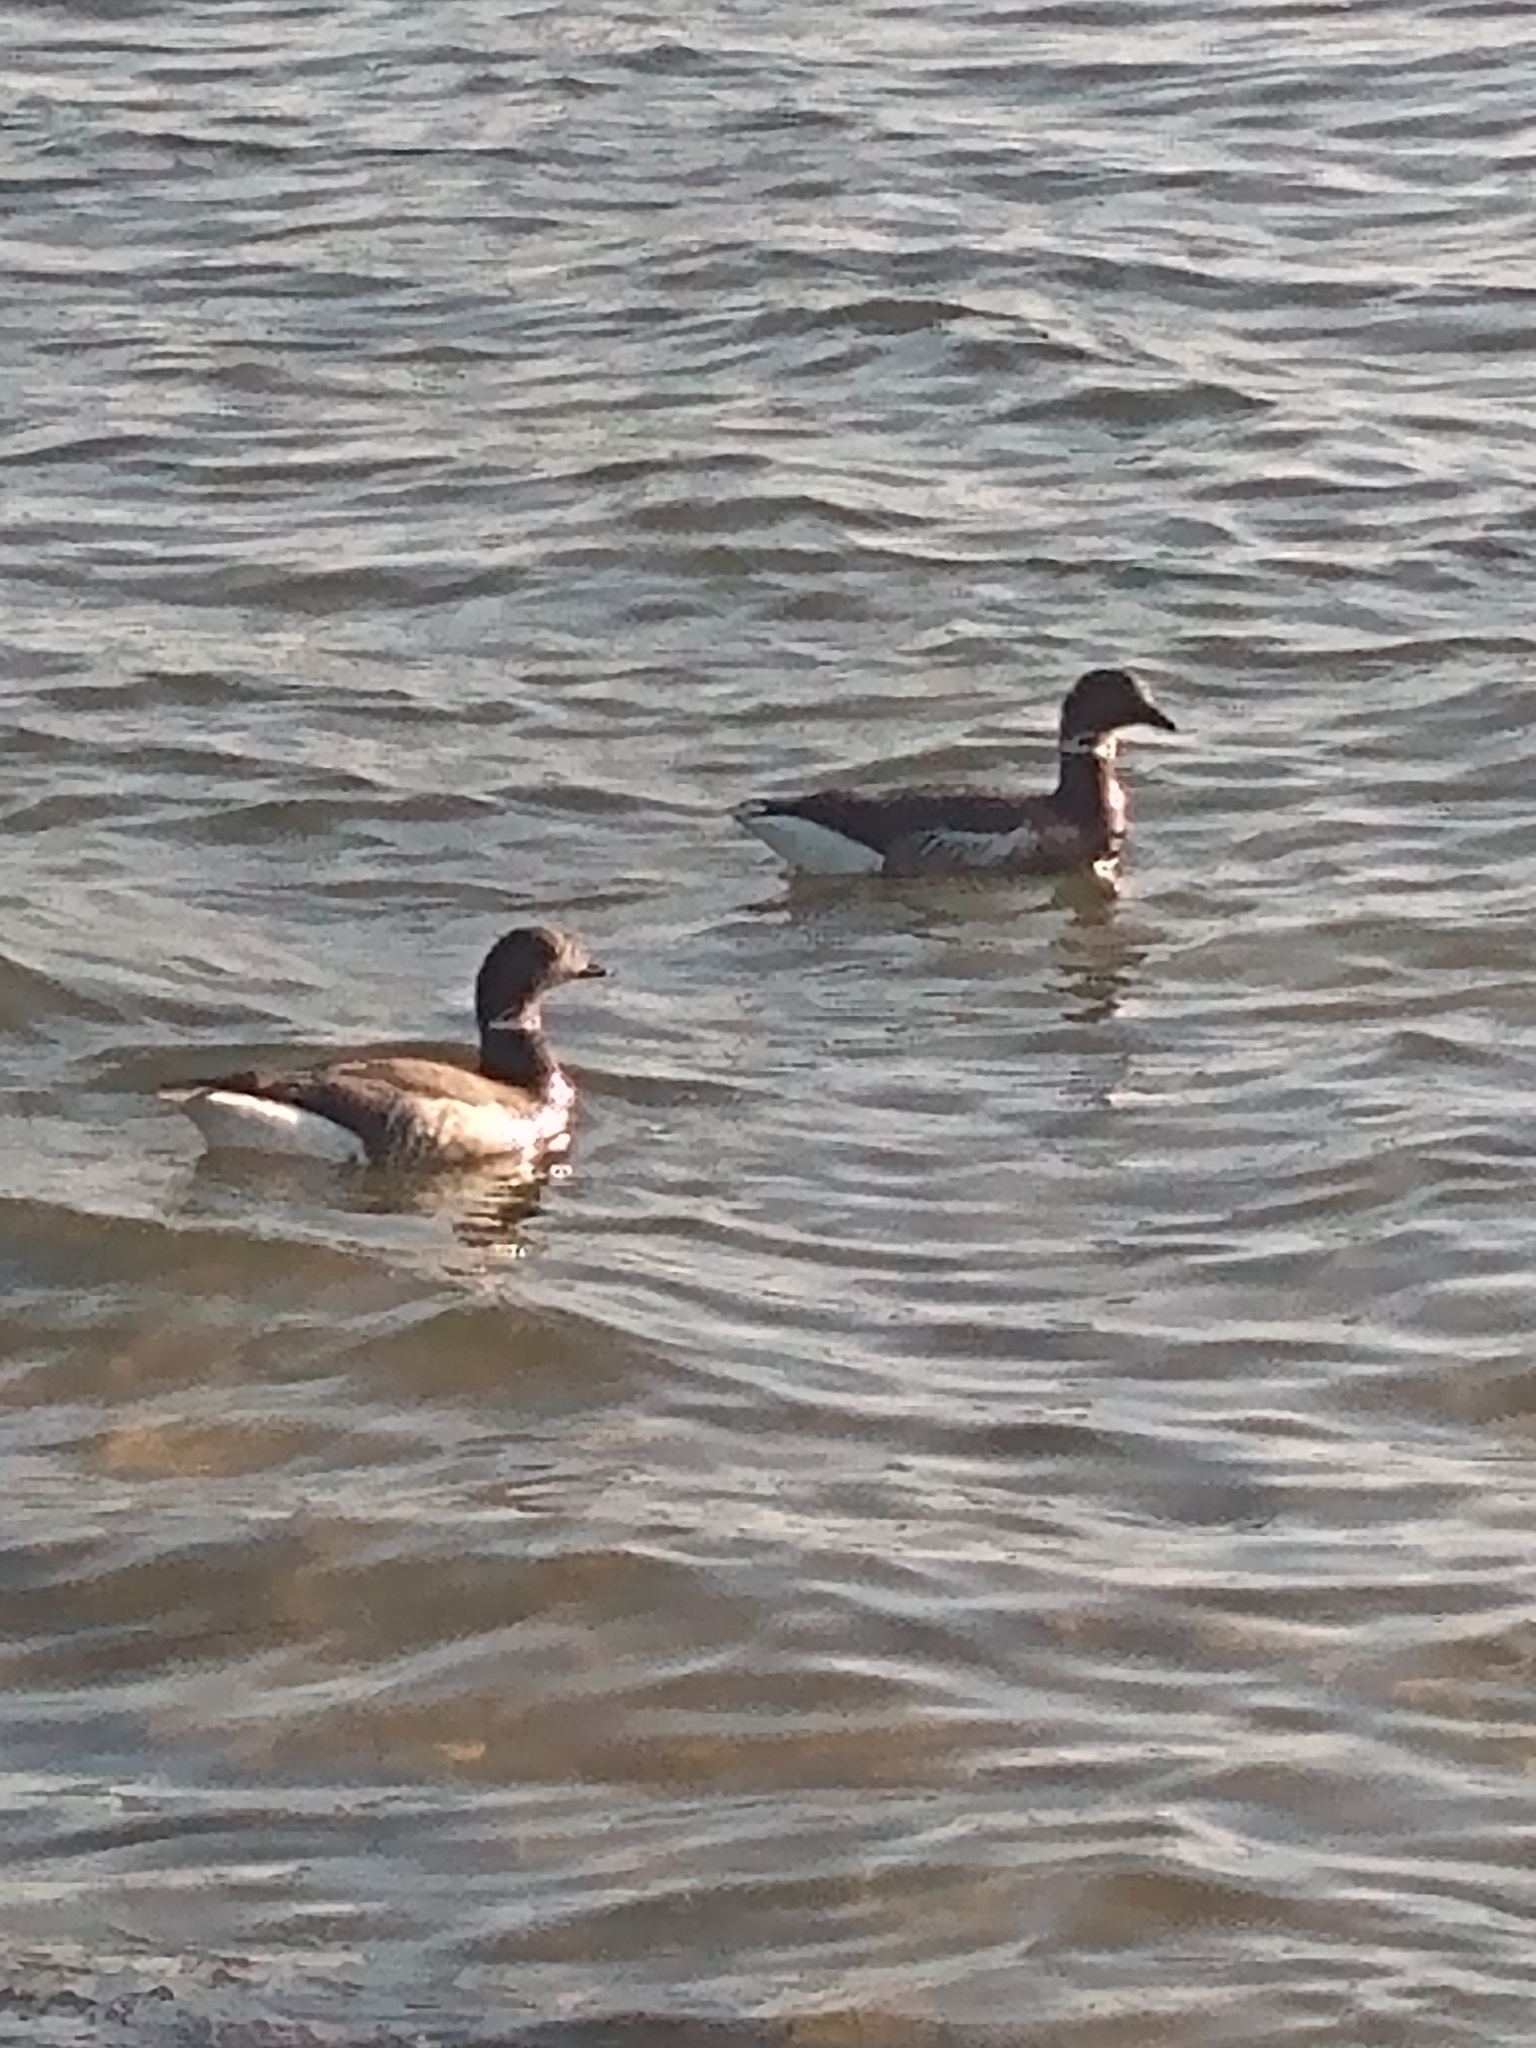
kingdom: Animalia
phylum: Chordata
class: Aves
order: Anseriformes
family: Anatidae
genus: Branta
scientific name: Branta bernicla
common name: Brant goose
